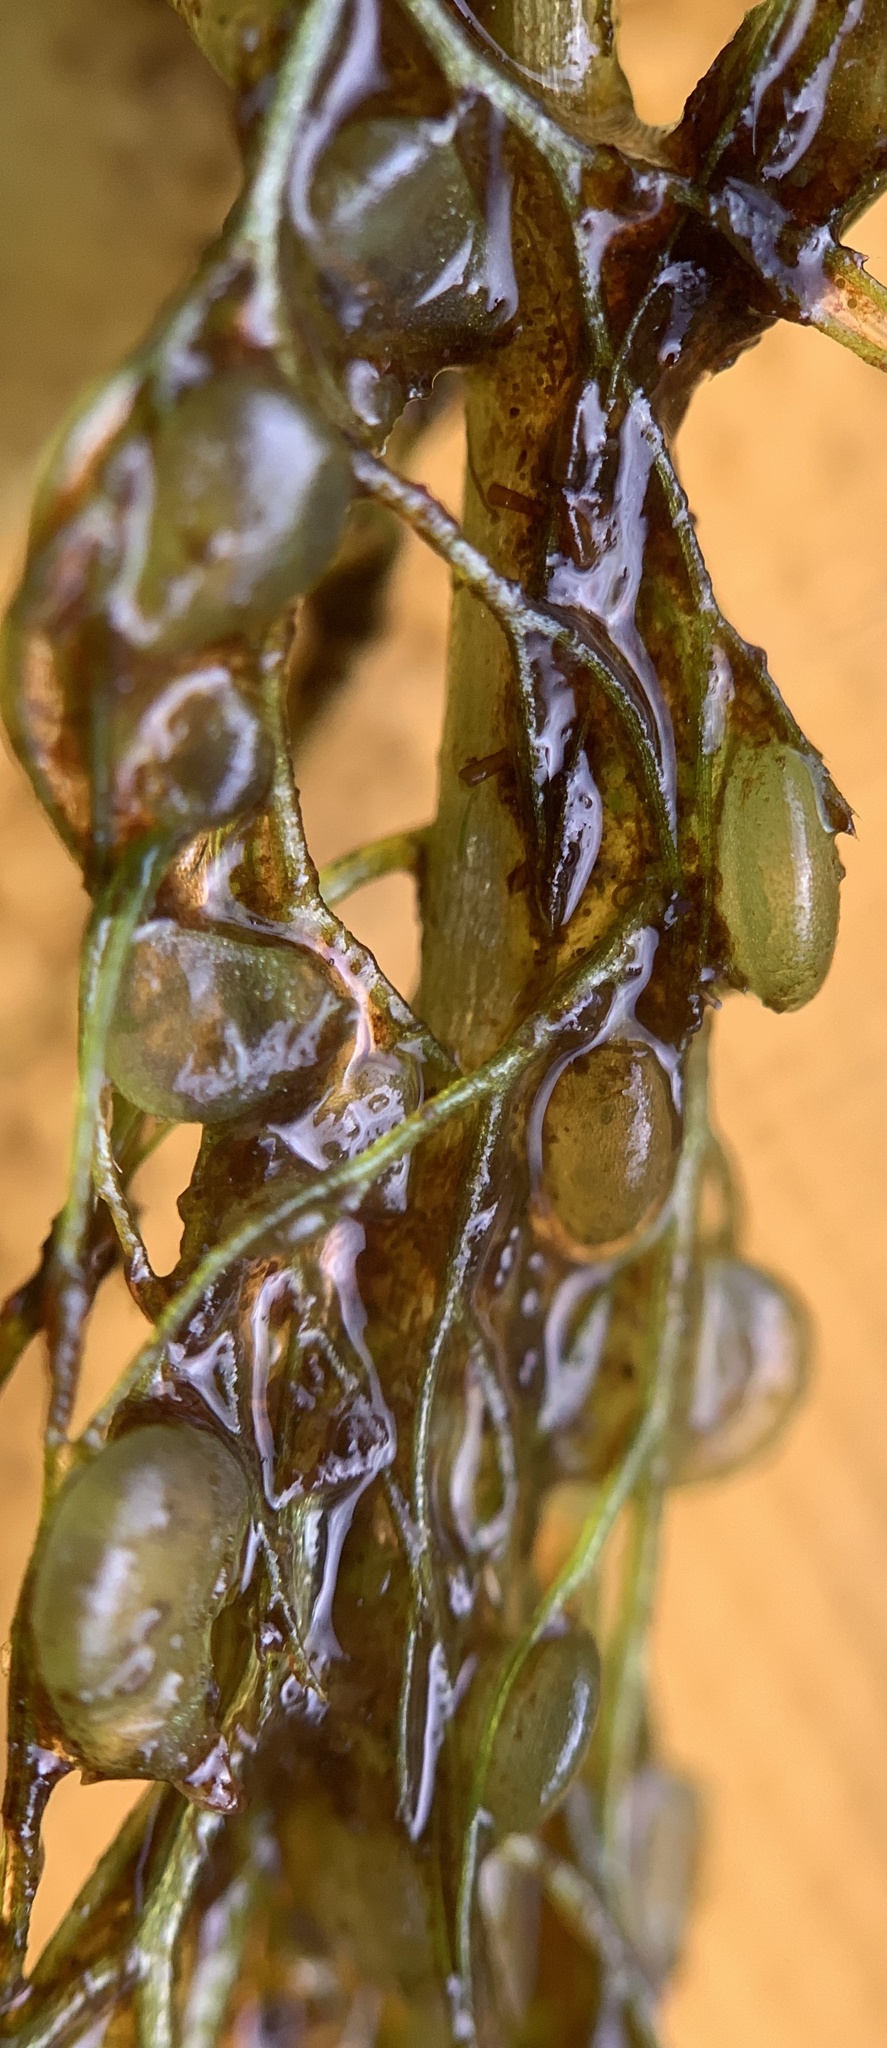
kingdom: Plantae
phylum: Tracheophyta
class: Magnoliopsida
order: Lamiales
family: Lentibulariaceae
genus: Utricularia
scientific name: Utricularia macrorhiza
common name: Common bladderwort
